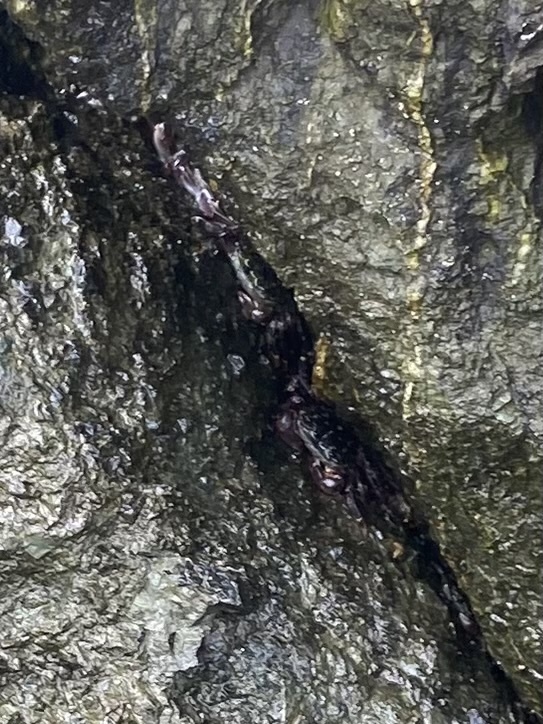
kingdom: Animalia
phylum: Arthropoda
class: Malacostraca
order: Decapoda
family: Grapsidae
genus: Pachygrapsus
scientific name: Pachygrapsus crassipes
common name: Striped shore crab
